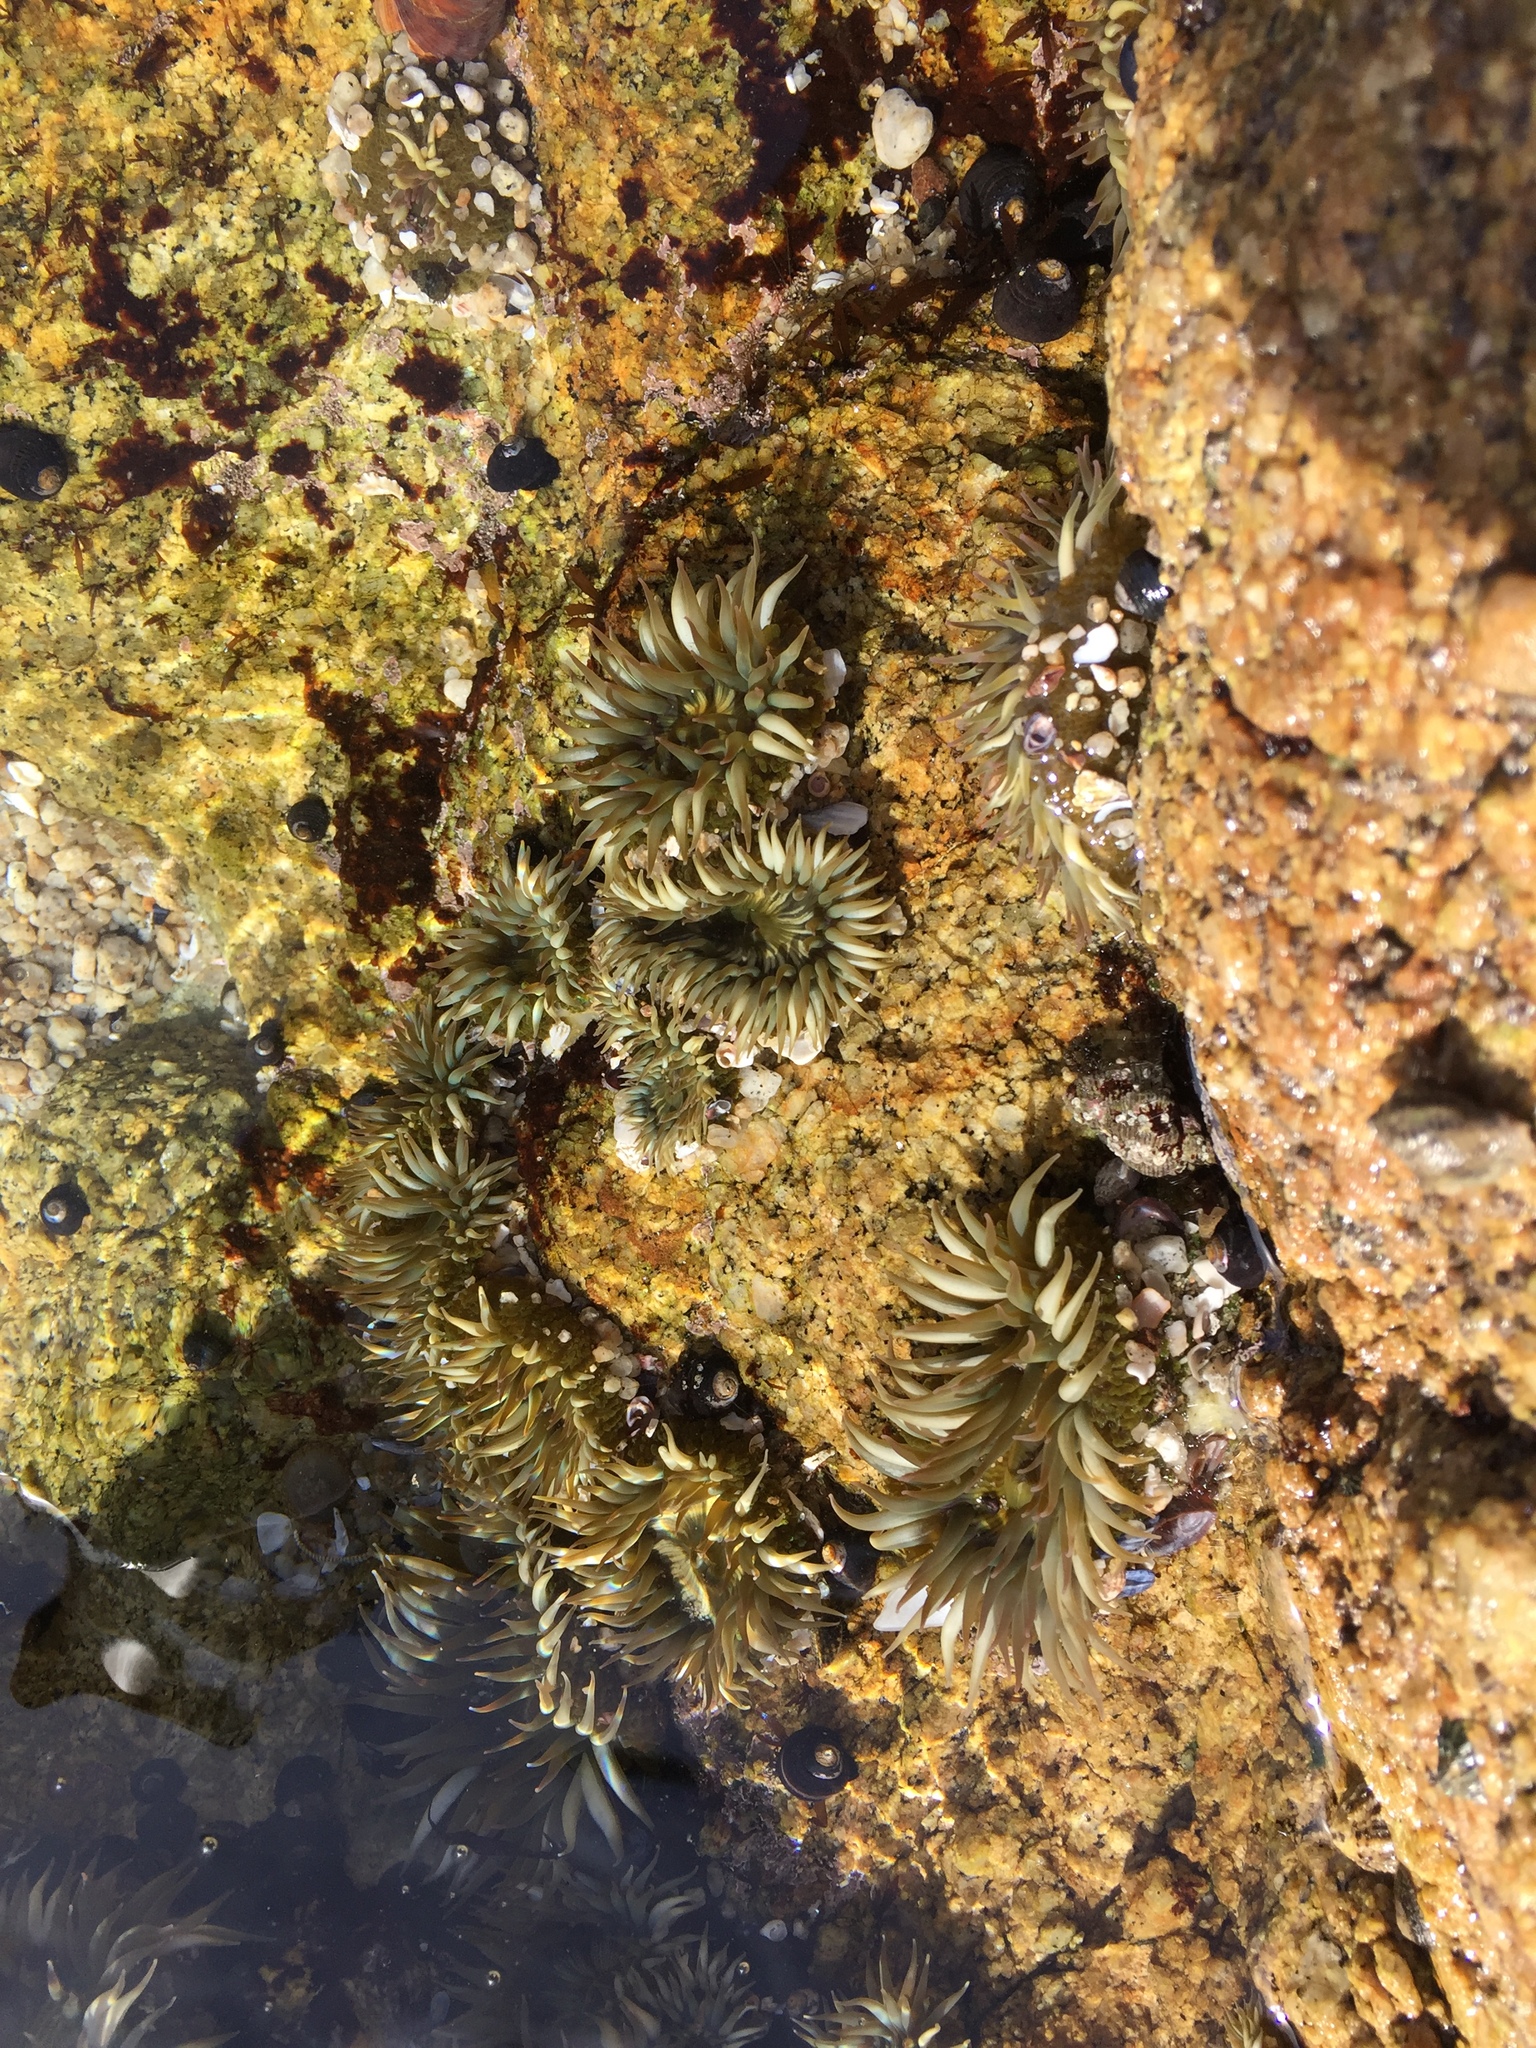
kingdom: Animalia
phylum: Cnidaria
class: Anthozoa
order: Actiniaria
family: Actiniidae
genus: Anthopleura
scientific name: Anthopleura elegantissima
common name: Clonal anemone
